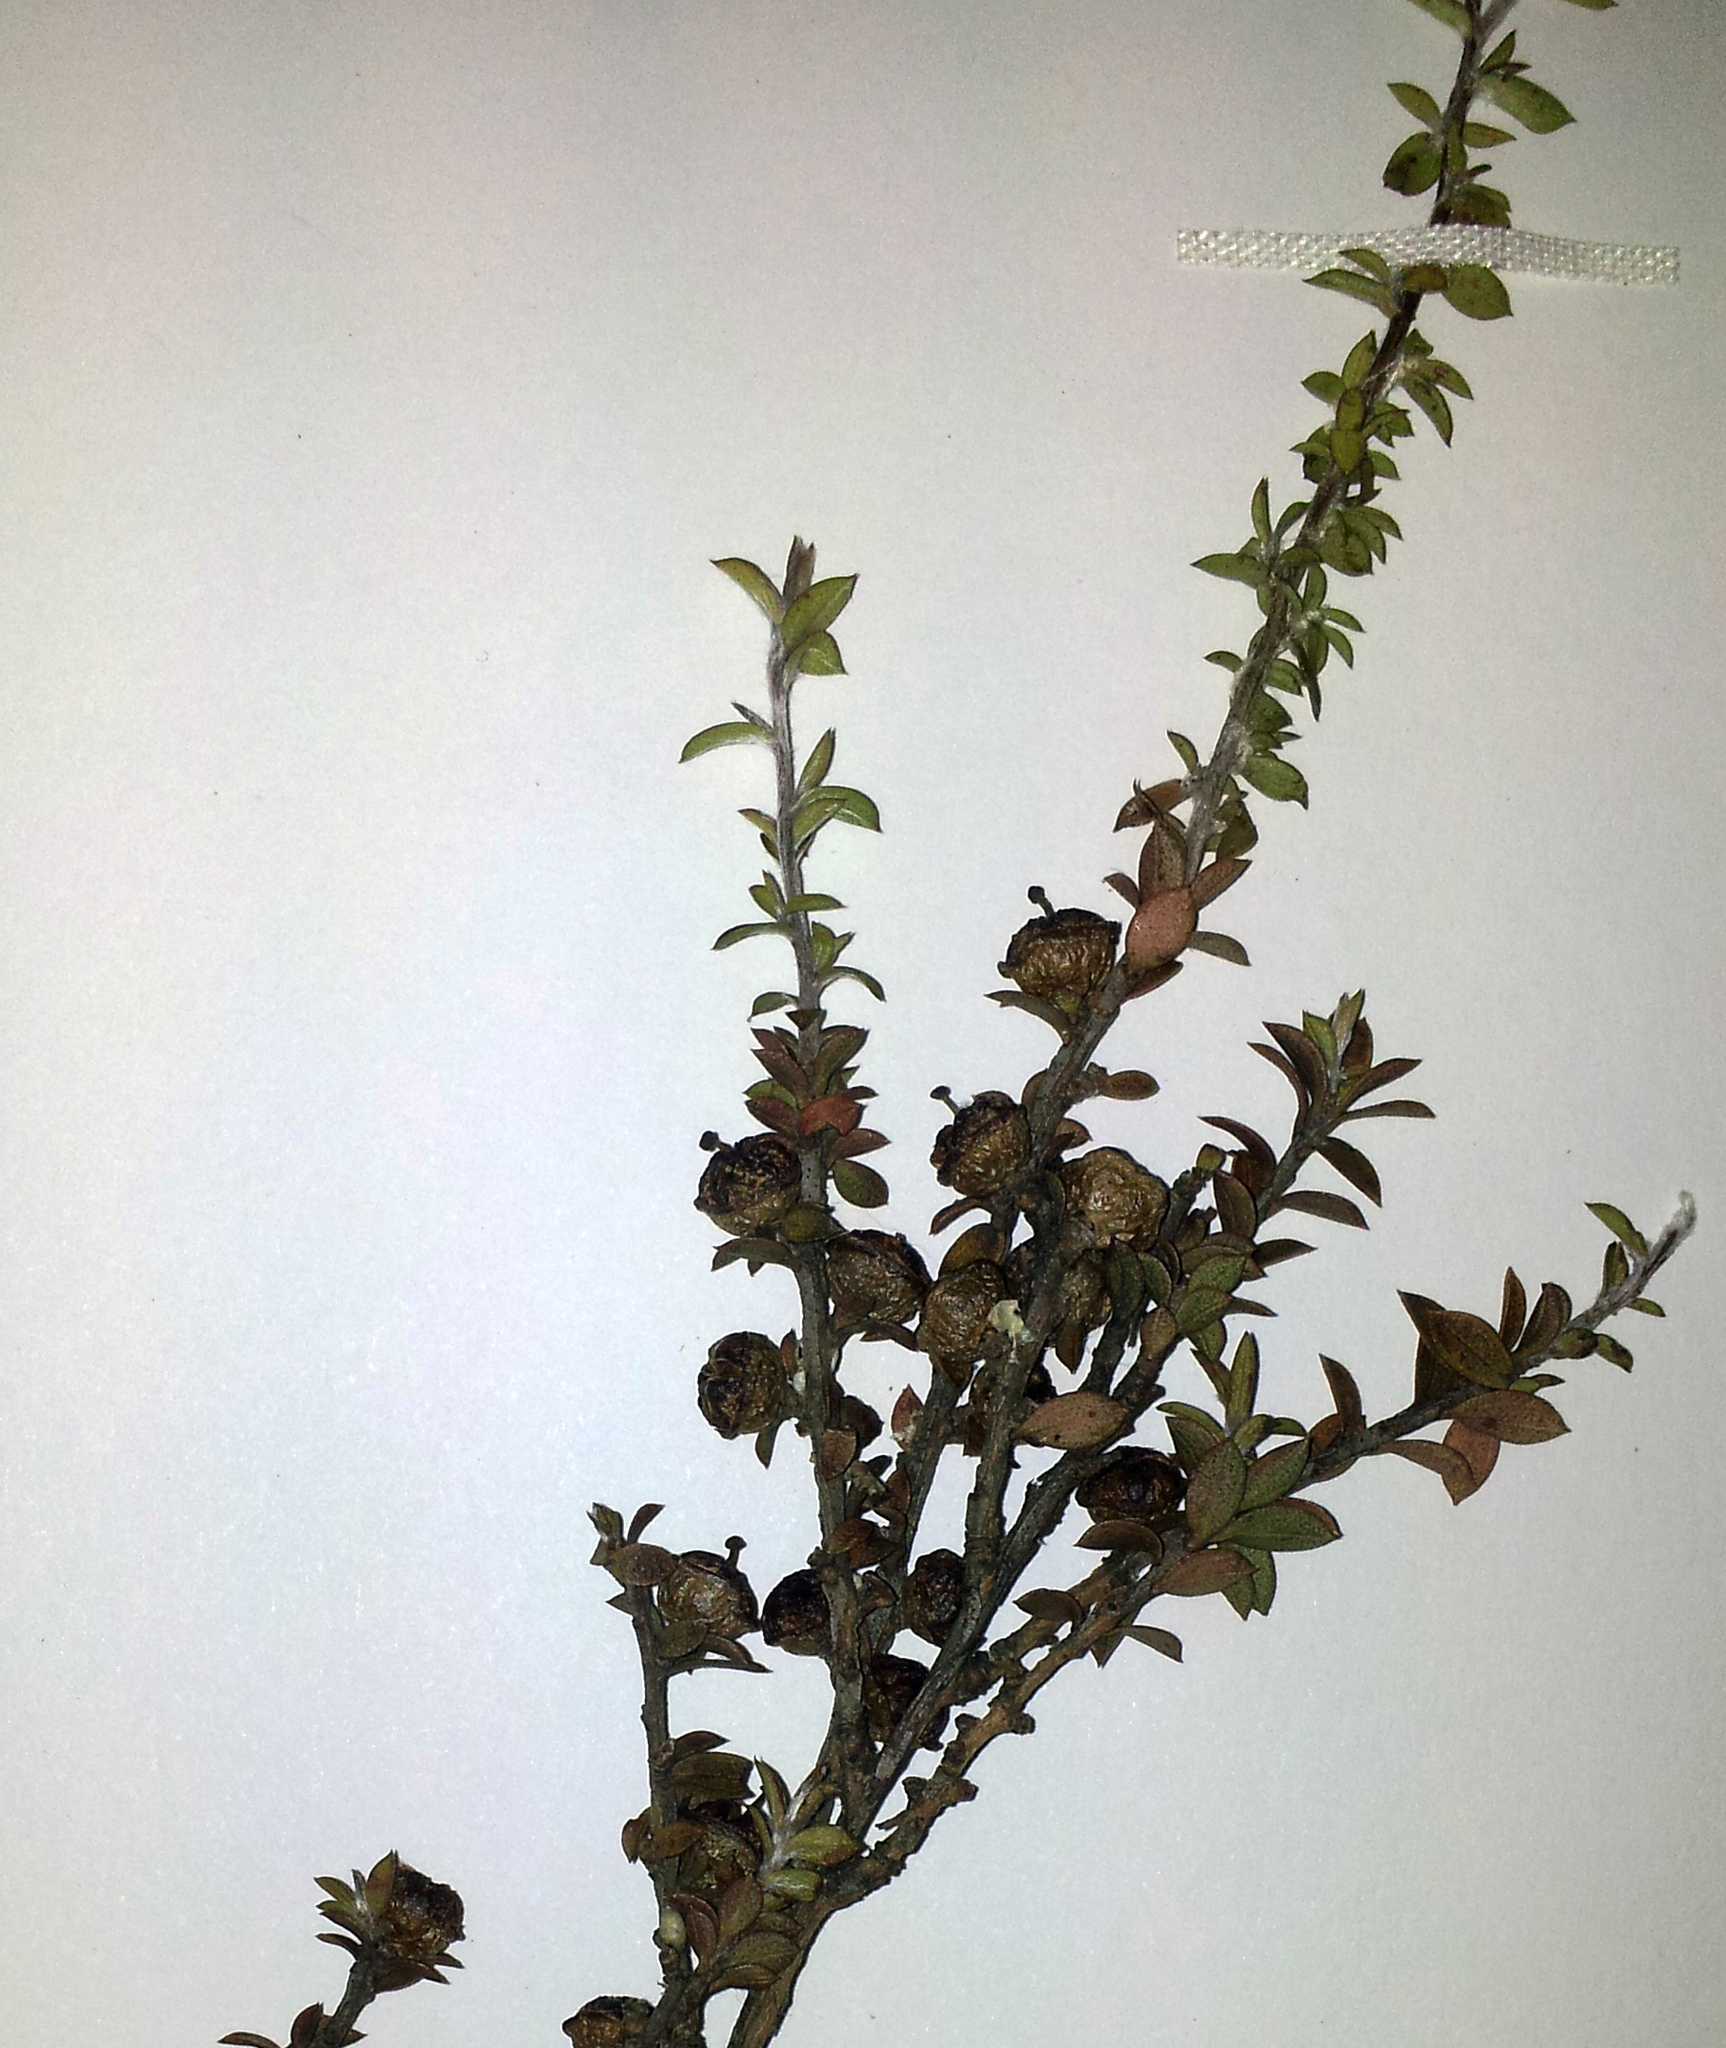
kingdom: Plantae
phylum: Tracheophyta
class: Magnoliopsida
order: Myrtales
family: Myrtaceae
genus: Leptospermum
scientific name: Leptospermum scoparium
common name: Broom tea-tree
